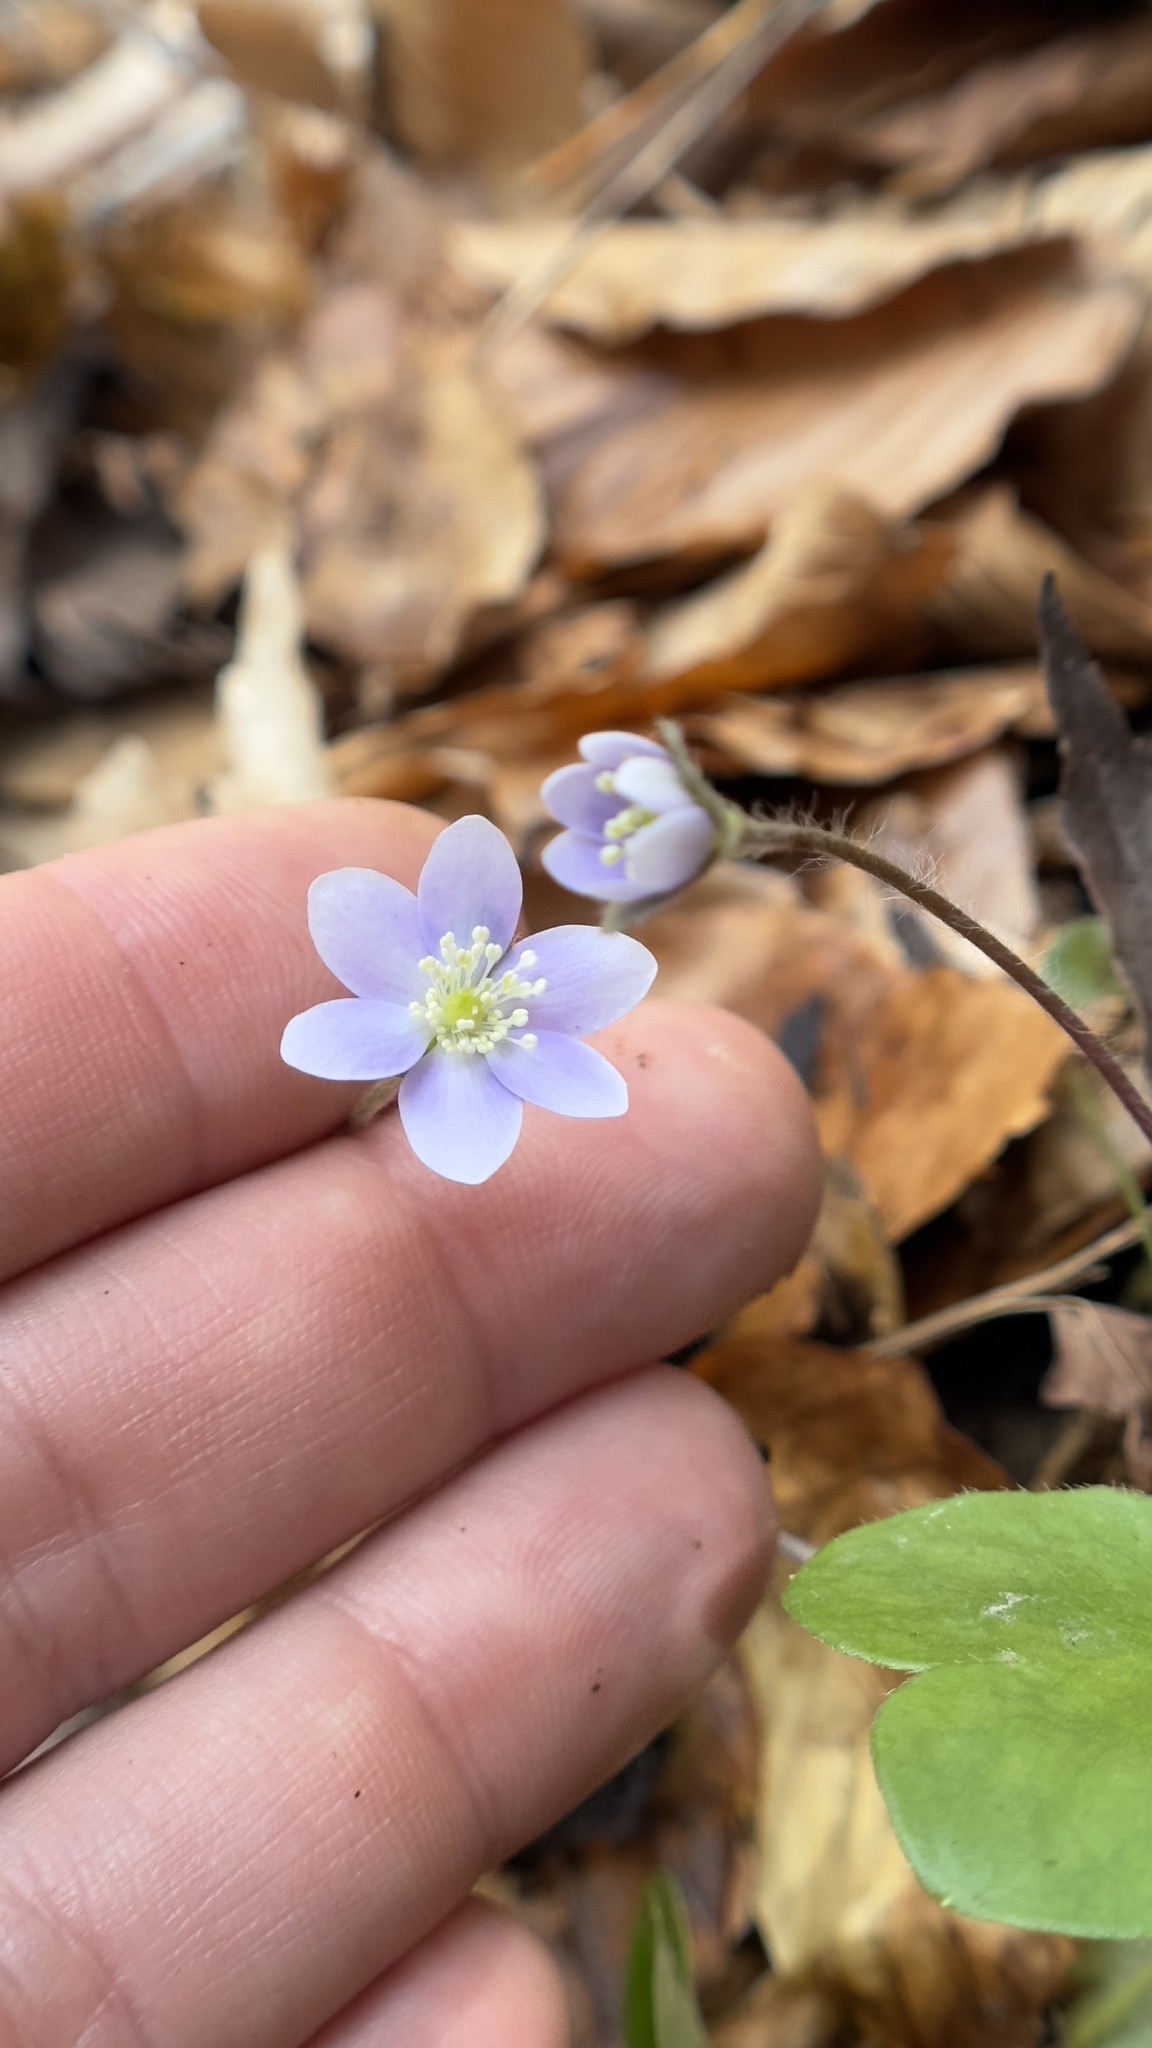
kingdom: Plantae
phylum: Tracheophyta
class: Magnoliopsida
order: Ranunculales
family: Ranunculaceae
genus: Hepatica
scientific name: Hepatica americana
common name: American hepatica
